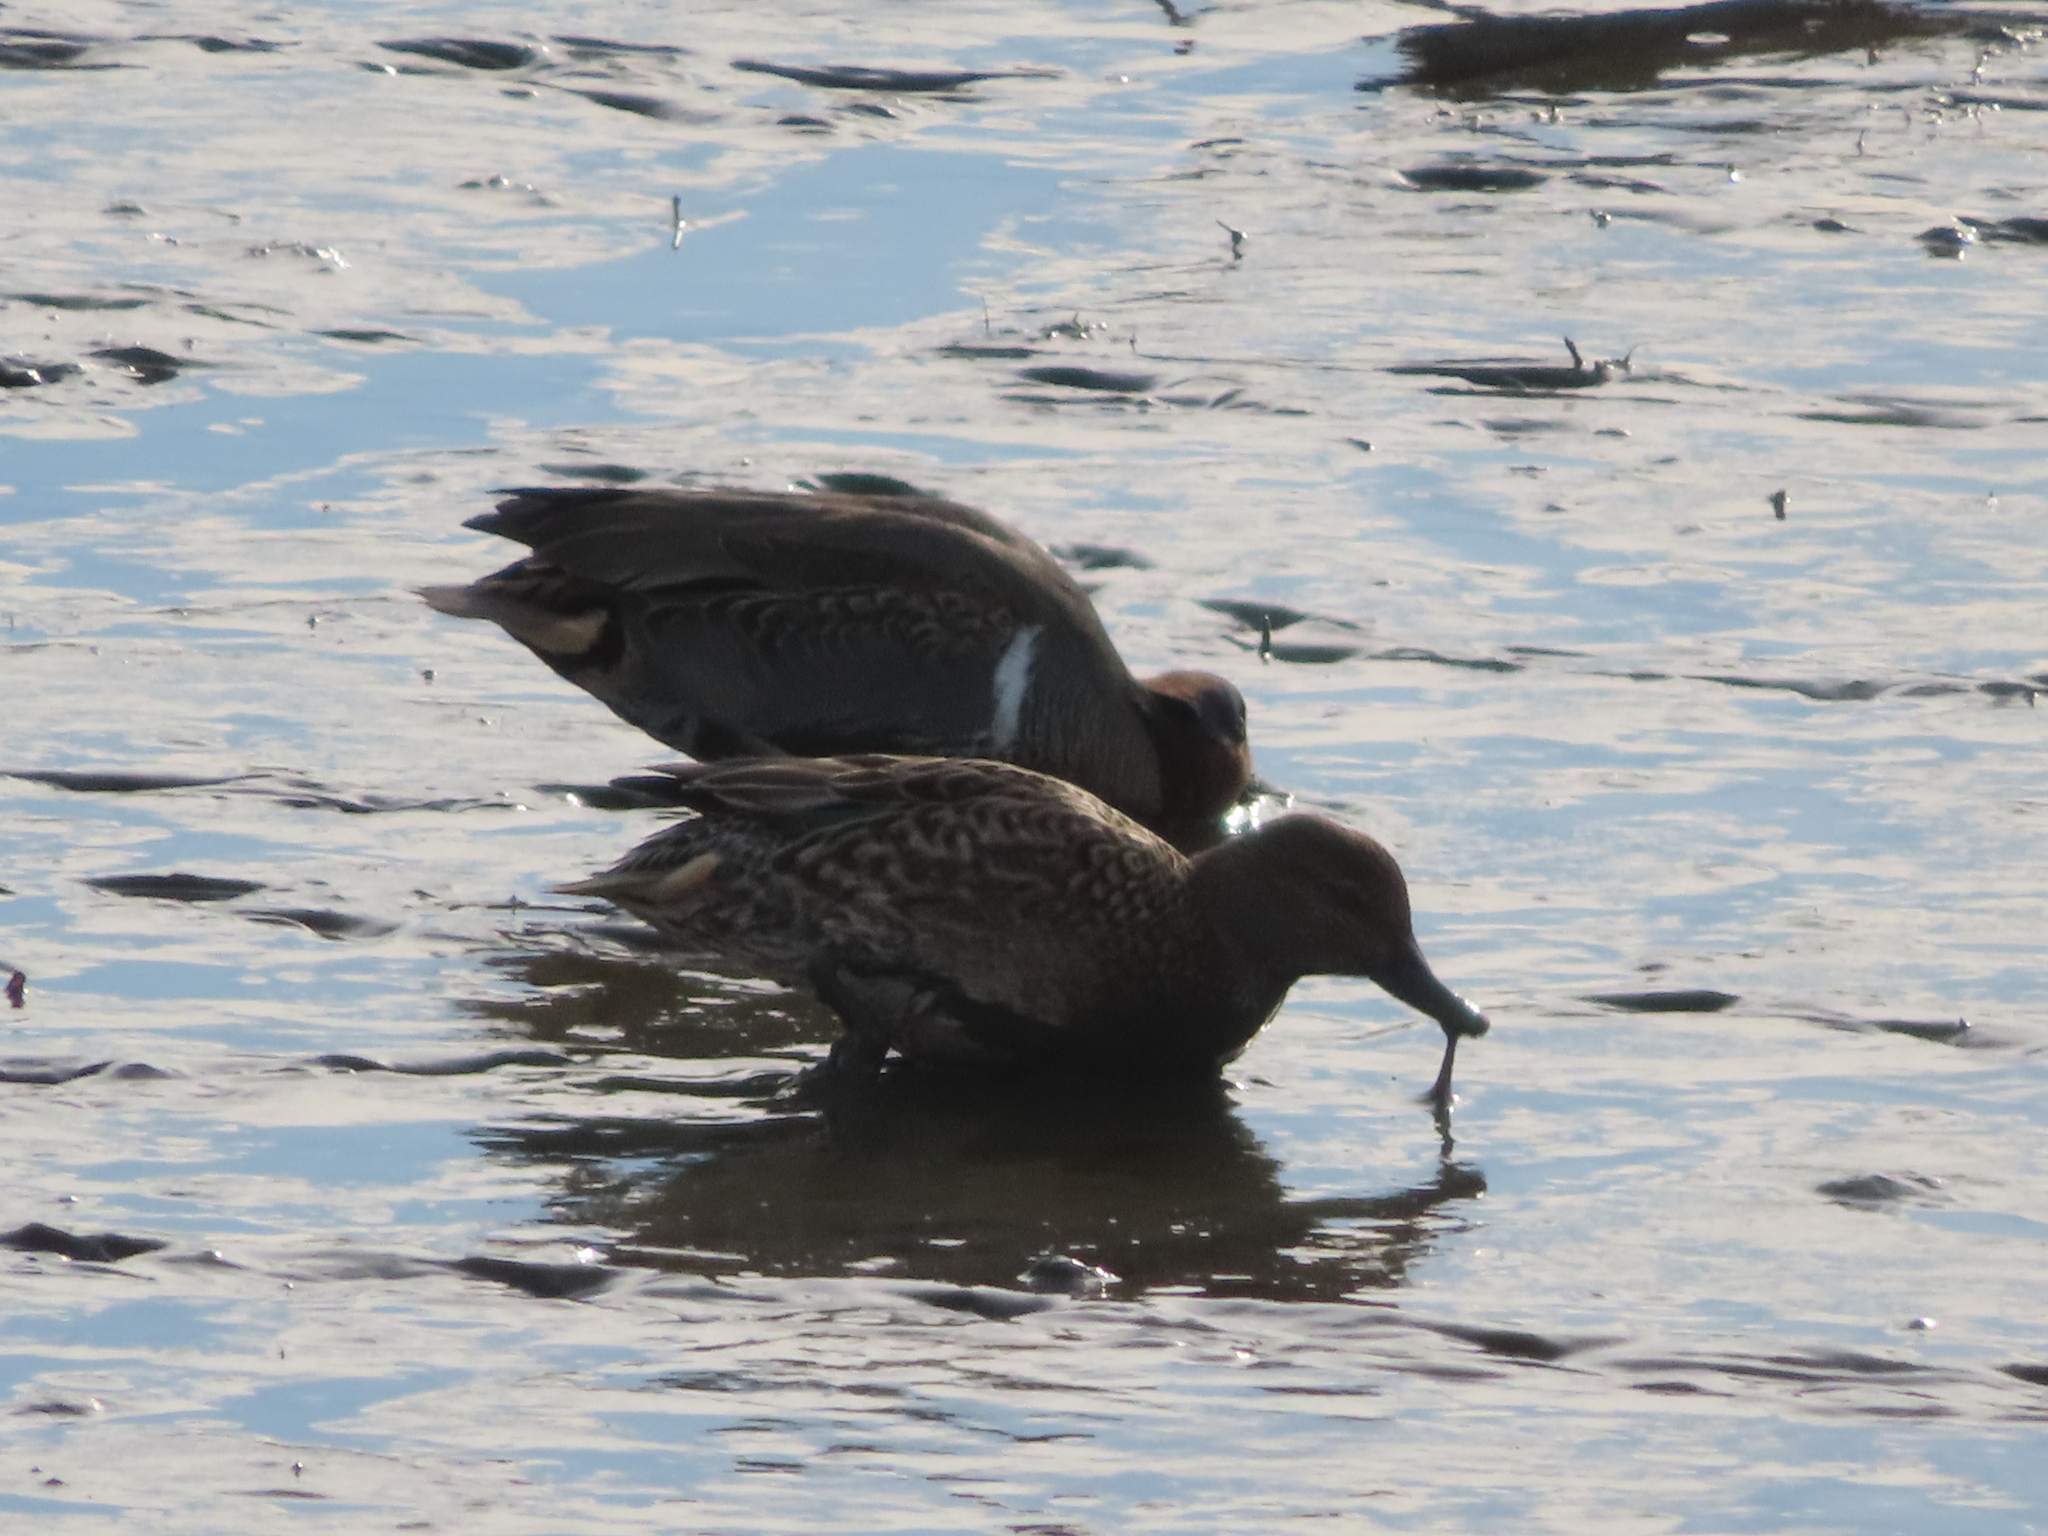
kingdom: Animalia
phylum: Chordata
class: Aves
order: Anseriformes
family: Anatidae
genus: Anas
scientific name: Anas crecca
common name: Eurasian teal
